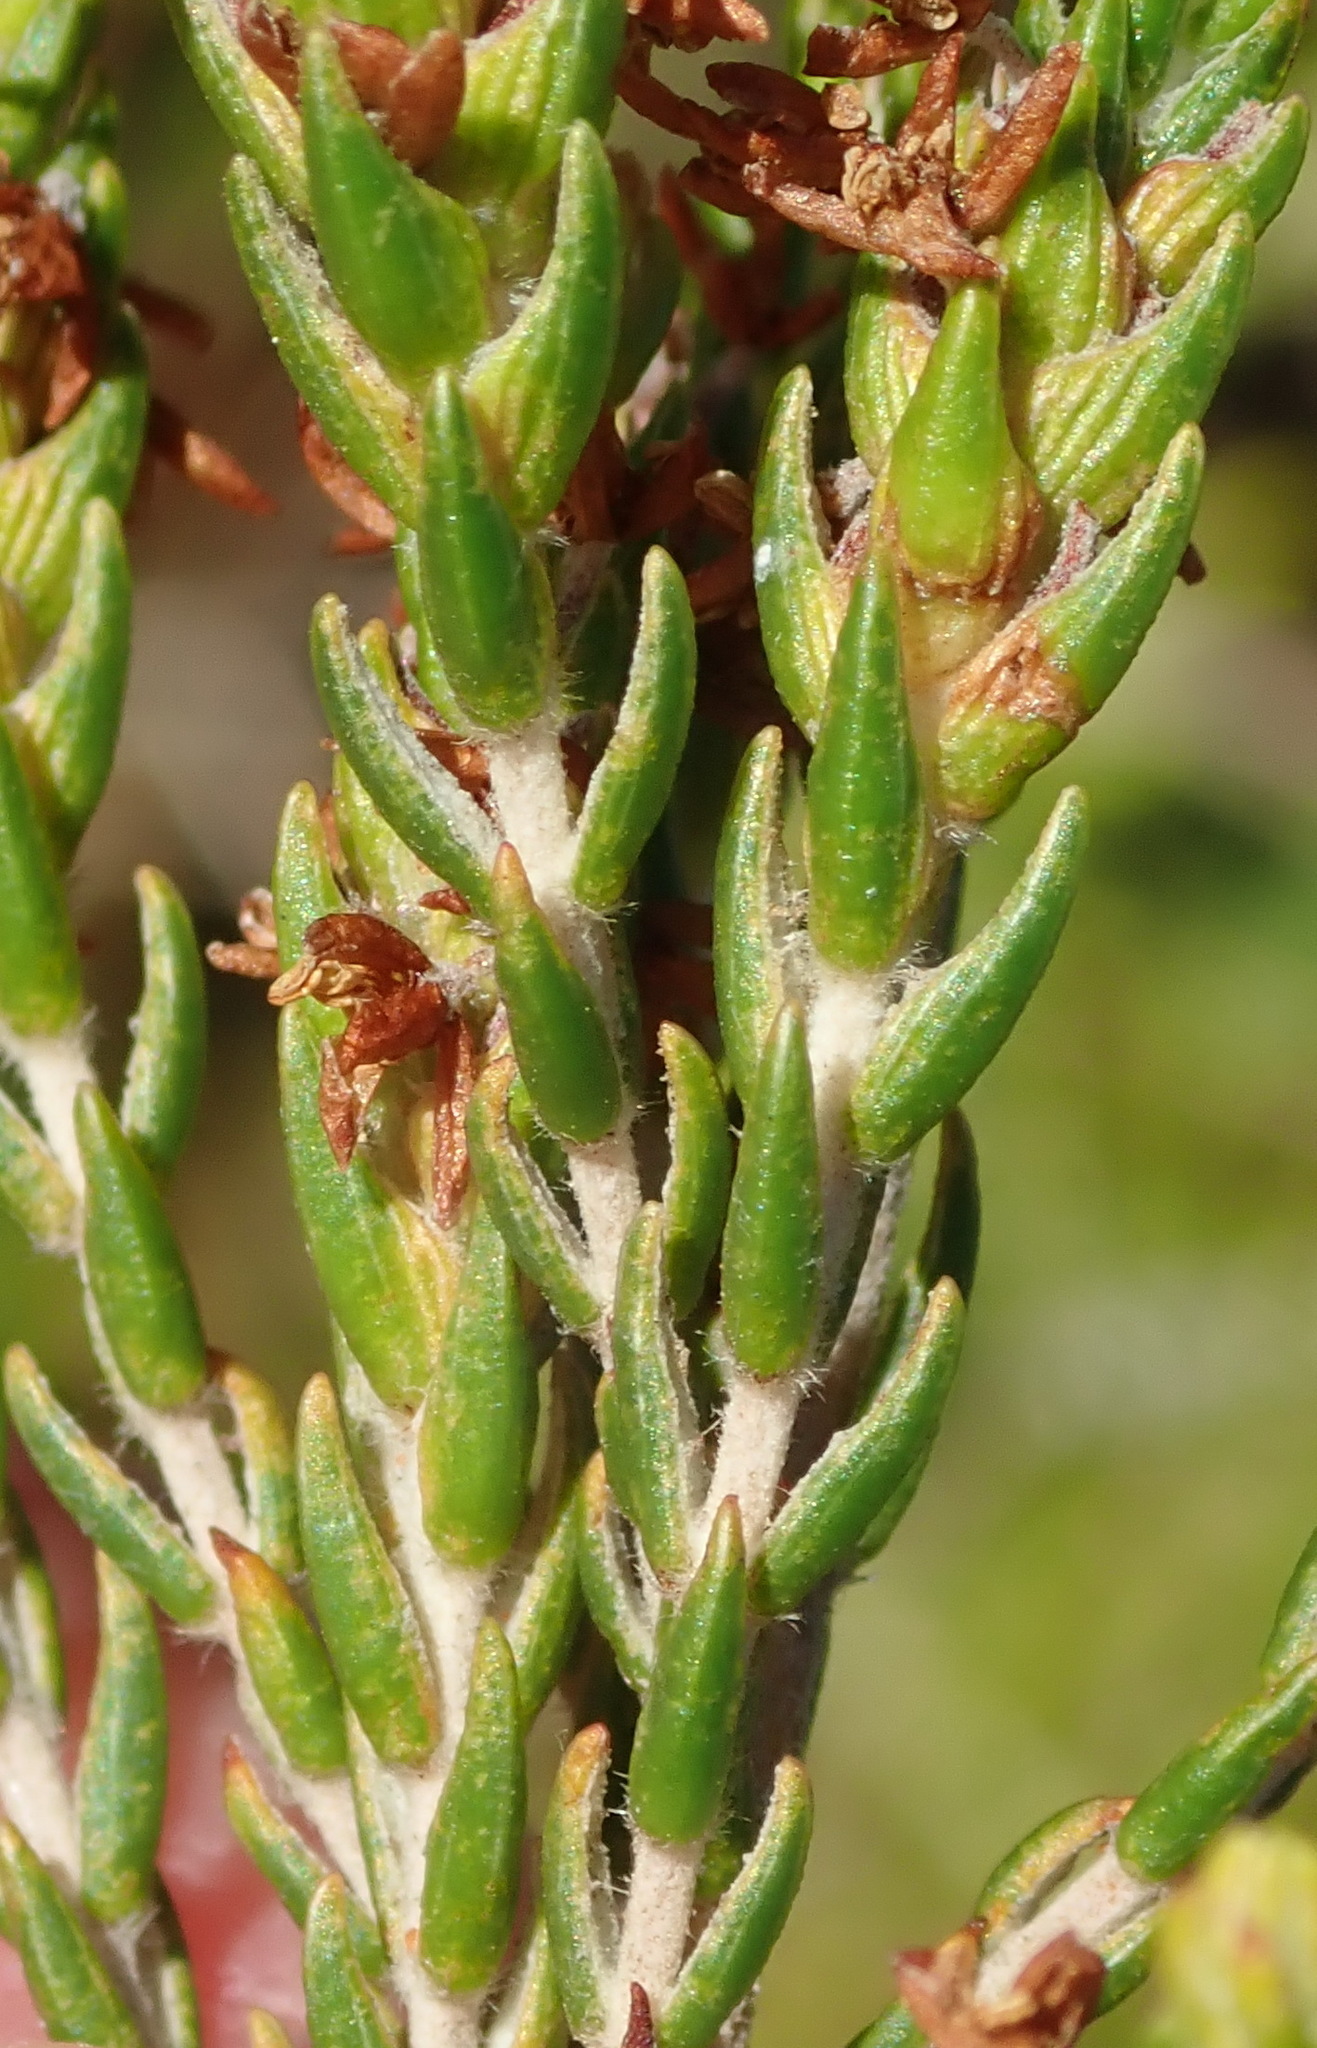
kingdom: Plantae
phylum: Tracheophyta
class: Magnoliopsida
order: Malvales
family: Thymelaeaceae
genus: Passerina
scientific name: Passerina rigida
